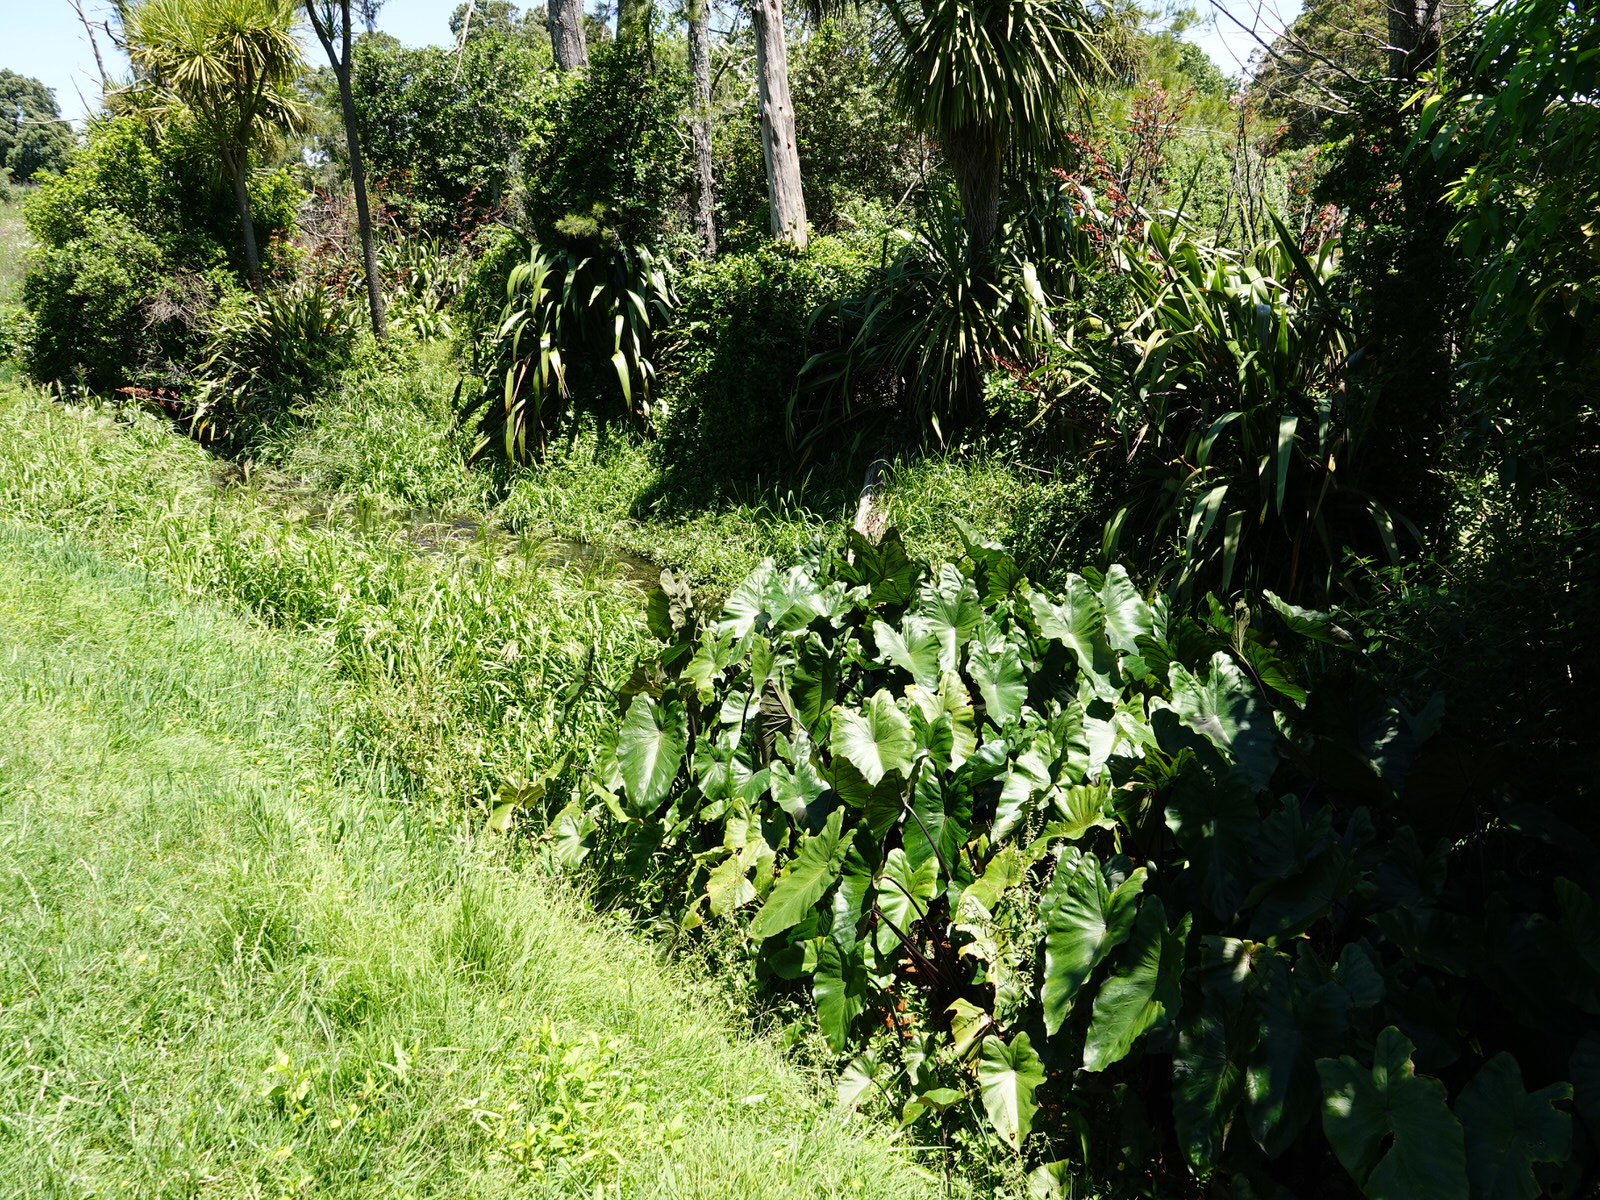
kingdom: Plantae
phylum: Tracheophyta
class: Liliopsida
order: Alismatales
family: Araceae
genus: Colocasia
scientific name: Colocasia esculenta
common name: Taro
